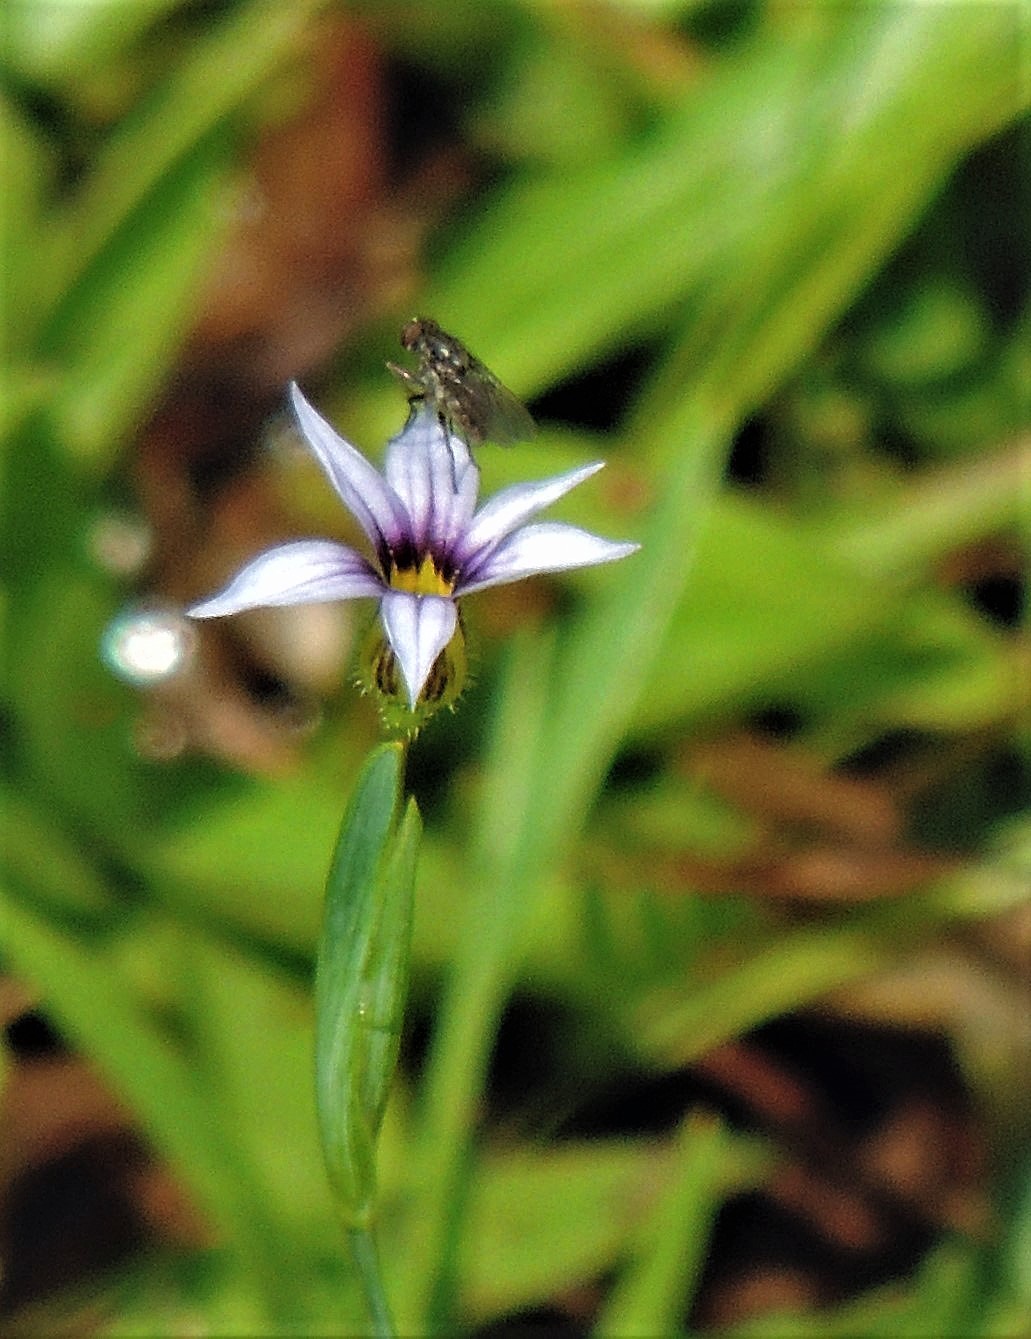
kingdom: Plantae
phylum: Tracheophyta
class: Liliopsida
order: Asparagales
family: Iridaceae
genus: Sisyrinchium
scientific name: Sisyrinchium micranthum
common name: Bermuda pigroot
